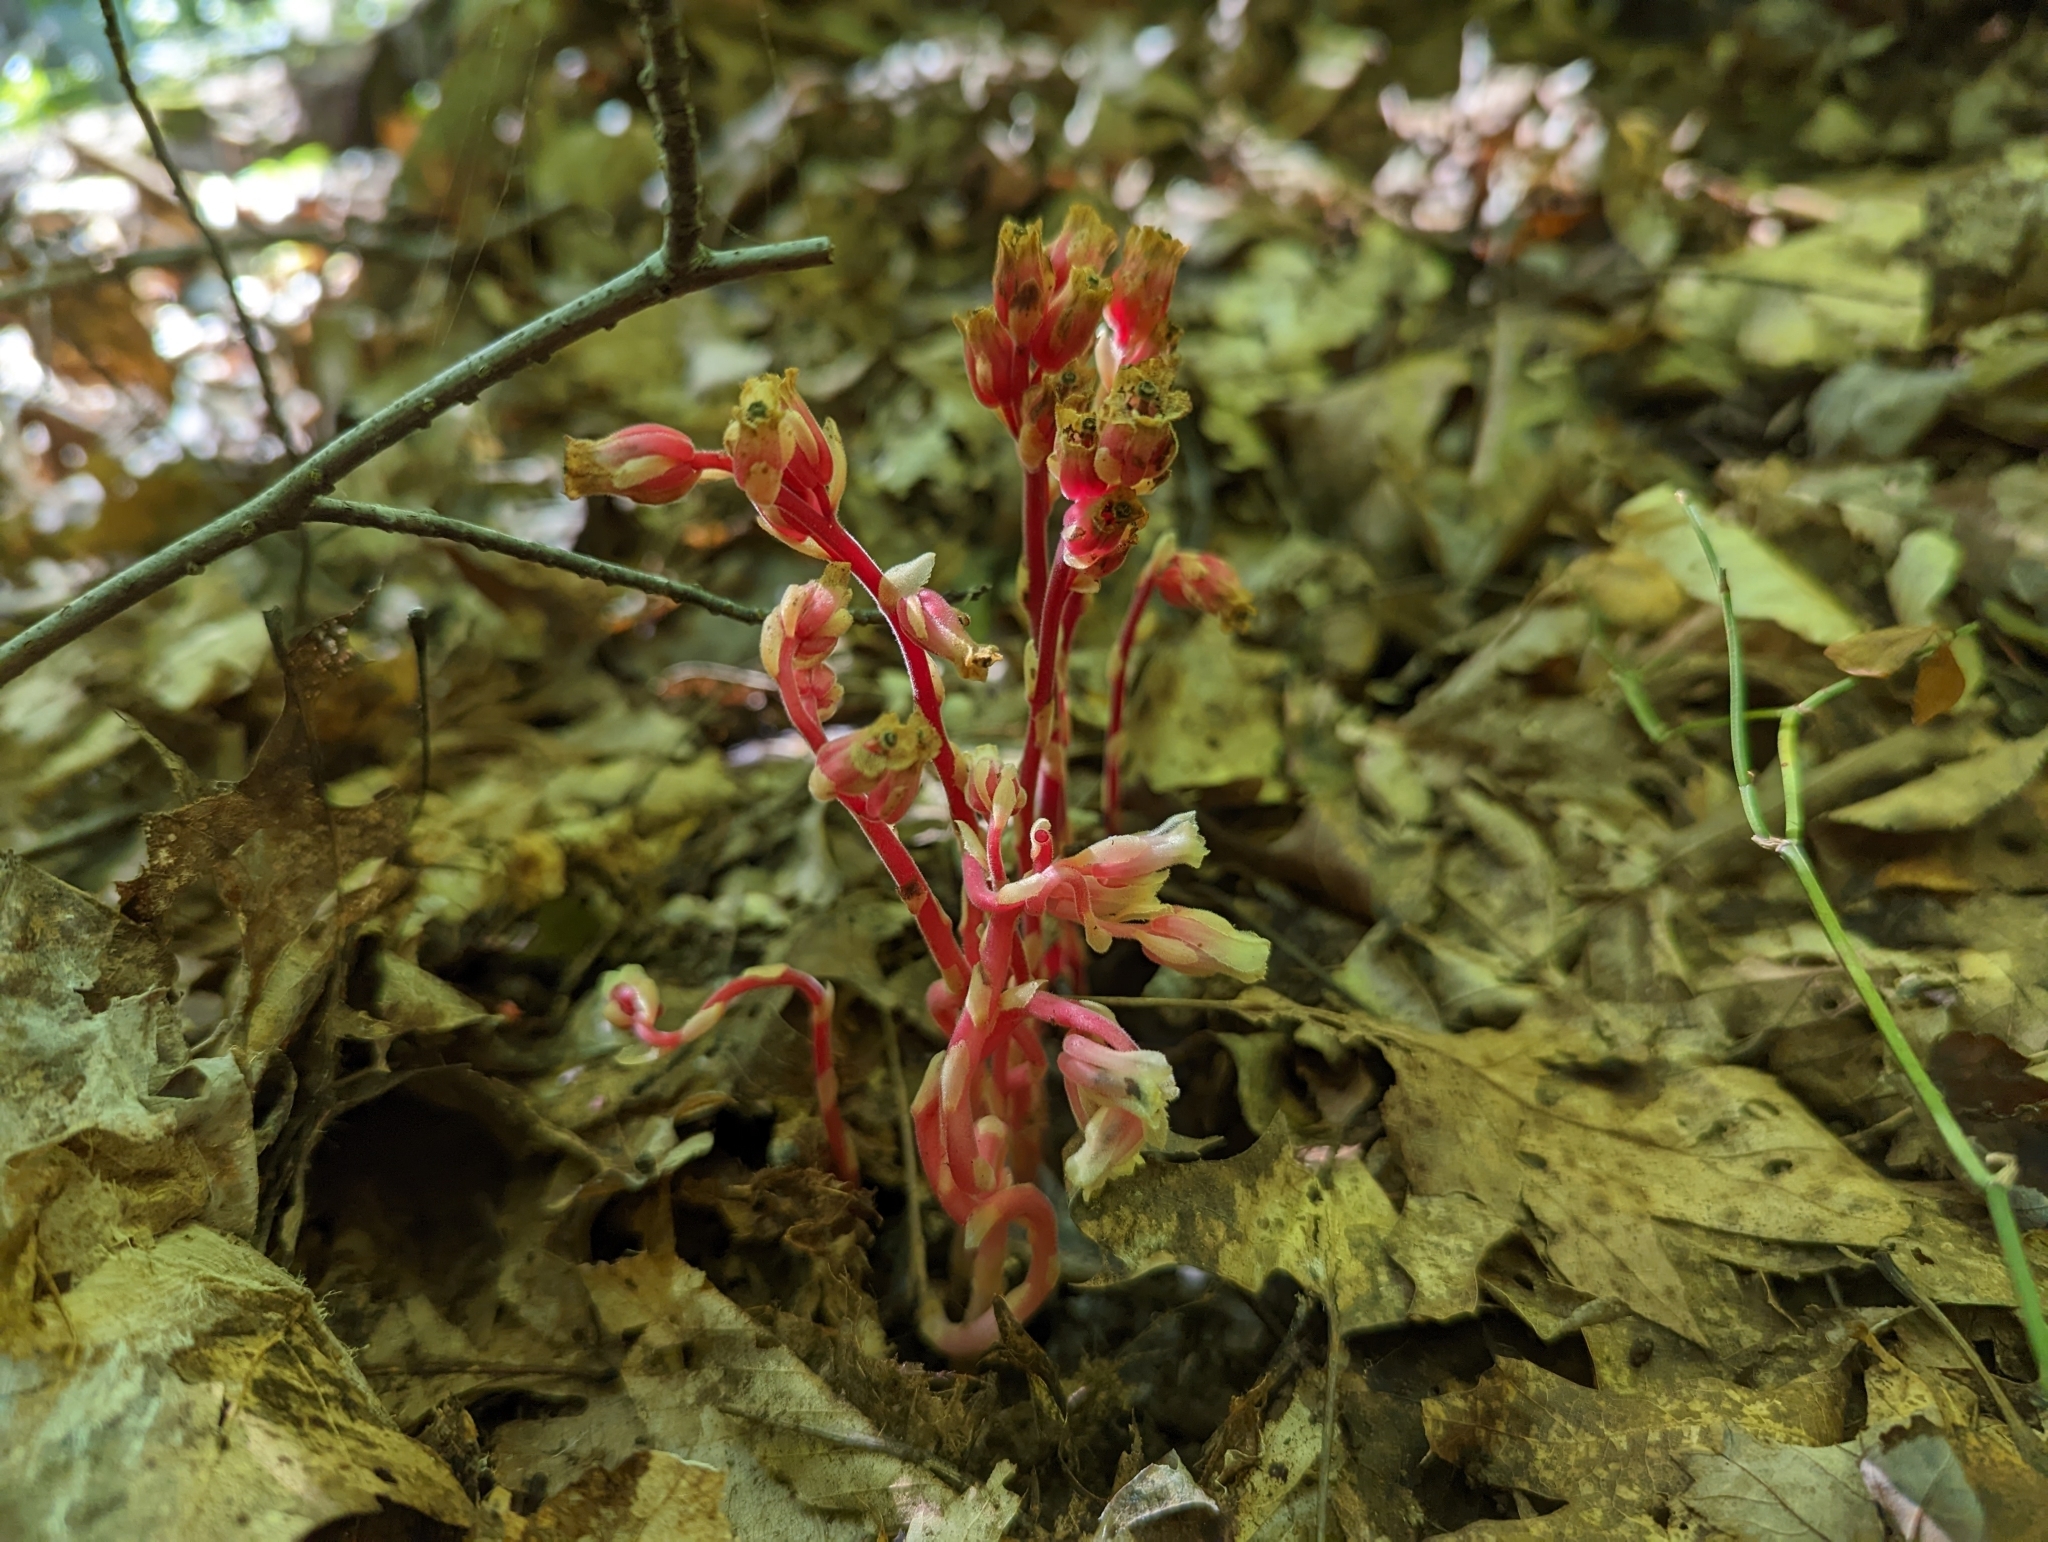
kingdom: Plantae
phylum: Tracheophyta
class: Magnoliopsida
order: Ericales
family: Ericaceae
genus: Hypopitys
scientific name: Hypopitys monotropa
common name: Yellow bird's-nest
